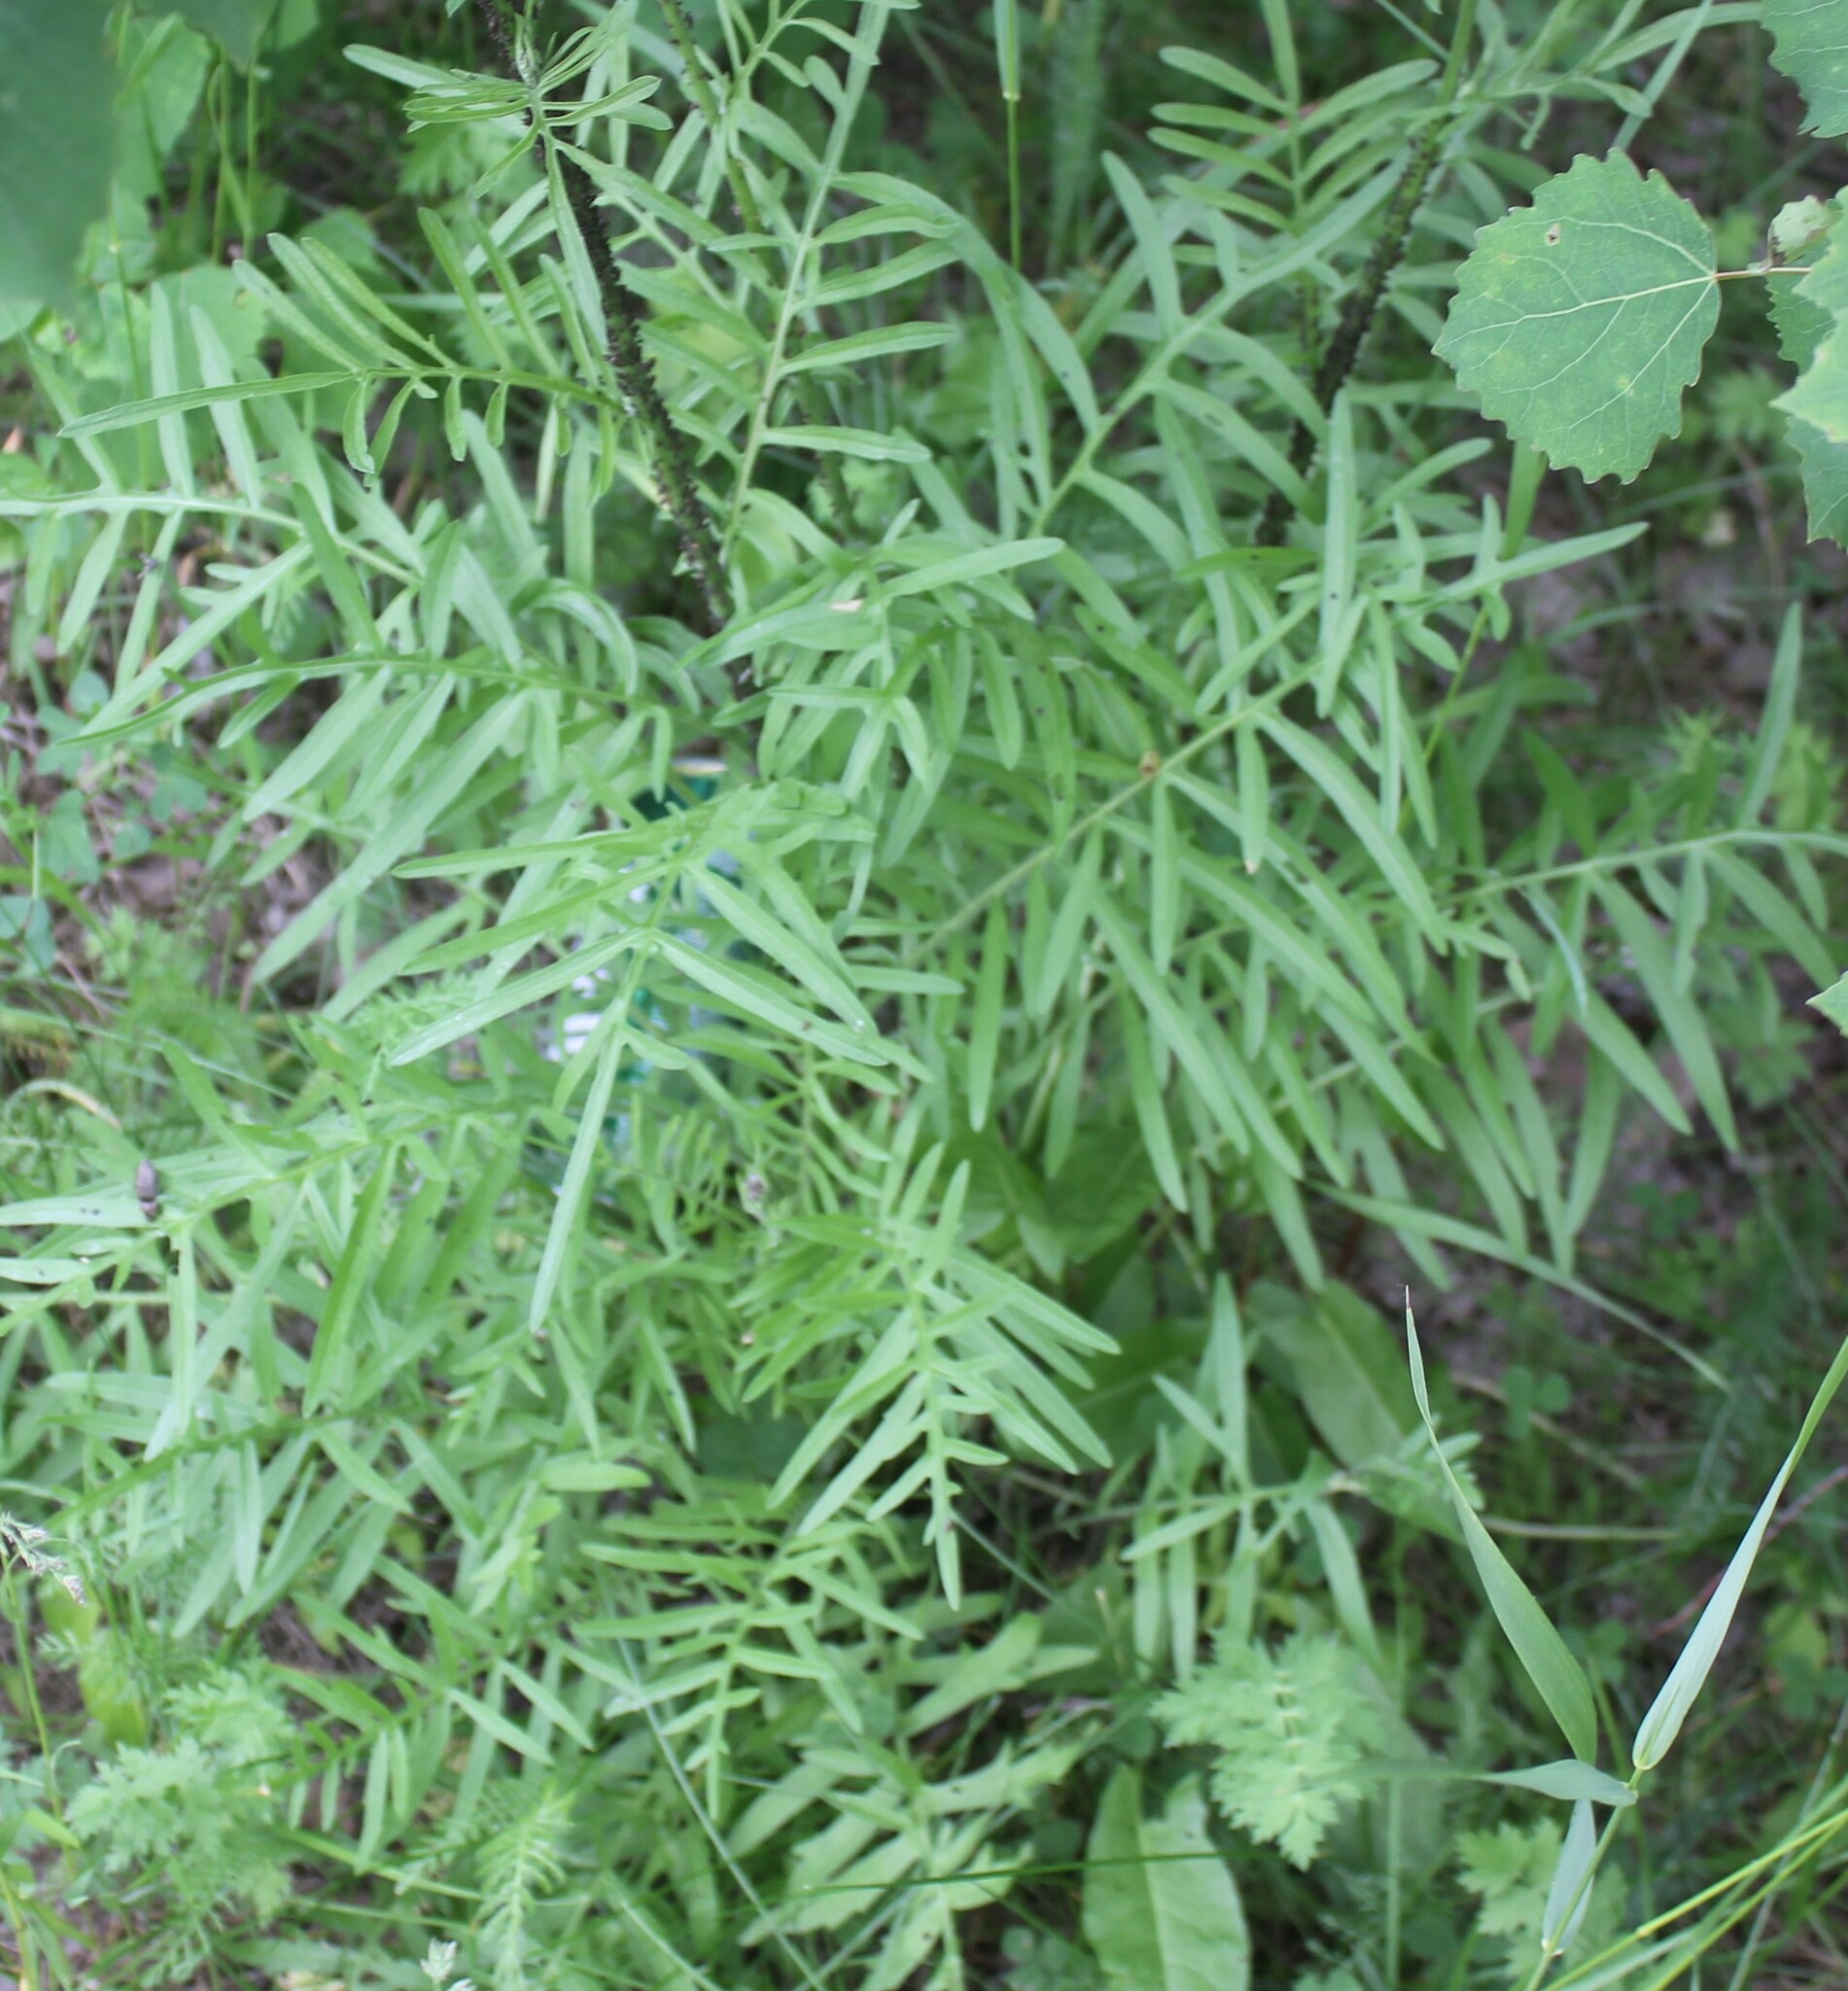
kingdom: Plantae
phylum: Tracheophyta
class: Magnoliopsida
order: Asterales
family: Asteraceae
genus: Centaurea
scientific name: Centaurea scabiosa
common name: Greater knapweed
